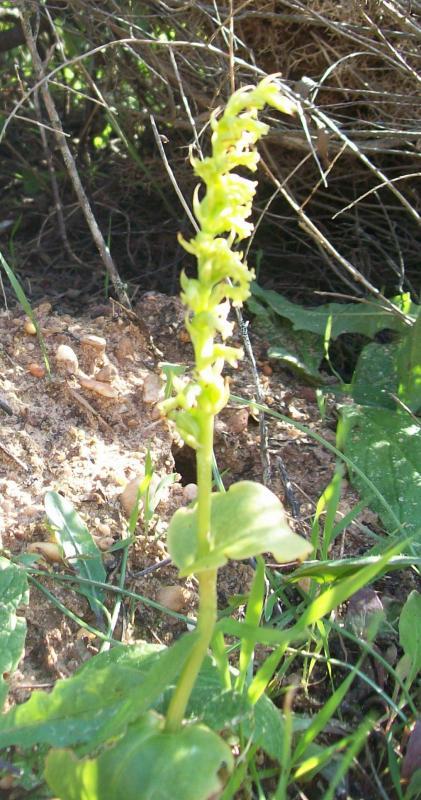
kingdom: Plantae
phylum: Tracheophyta
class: Liliopsida
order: Asparagales
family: Orchidaceae
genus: Gennaria
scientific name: Gennaria diphylla
